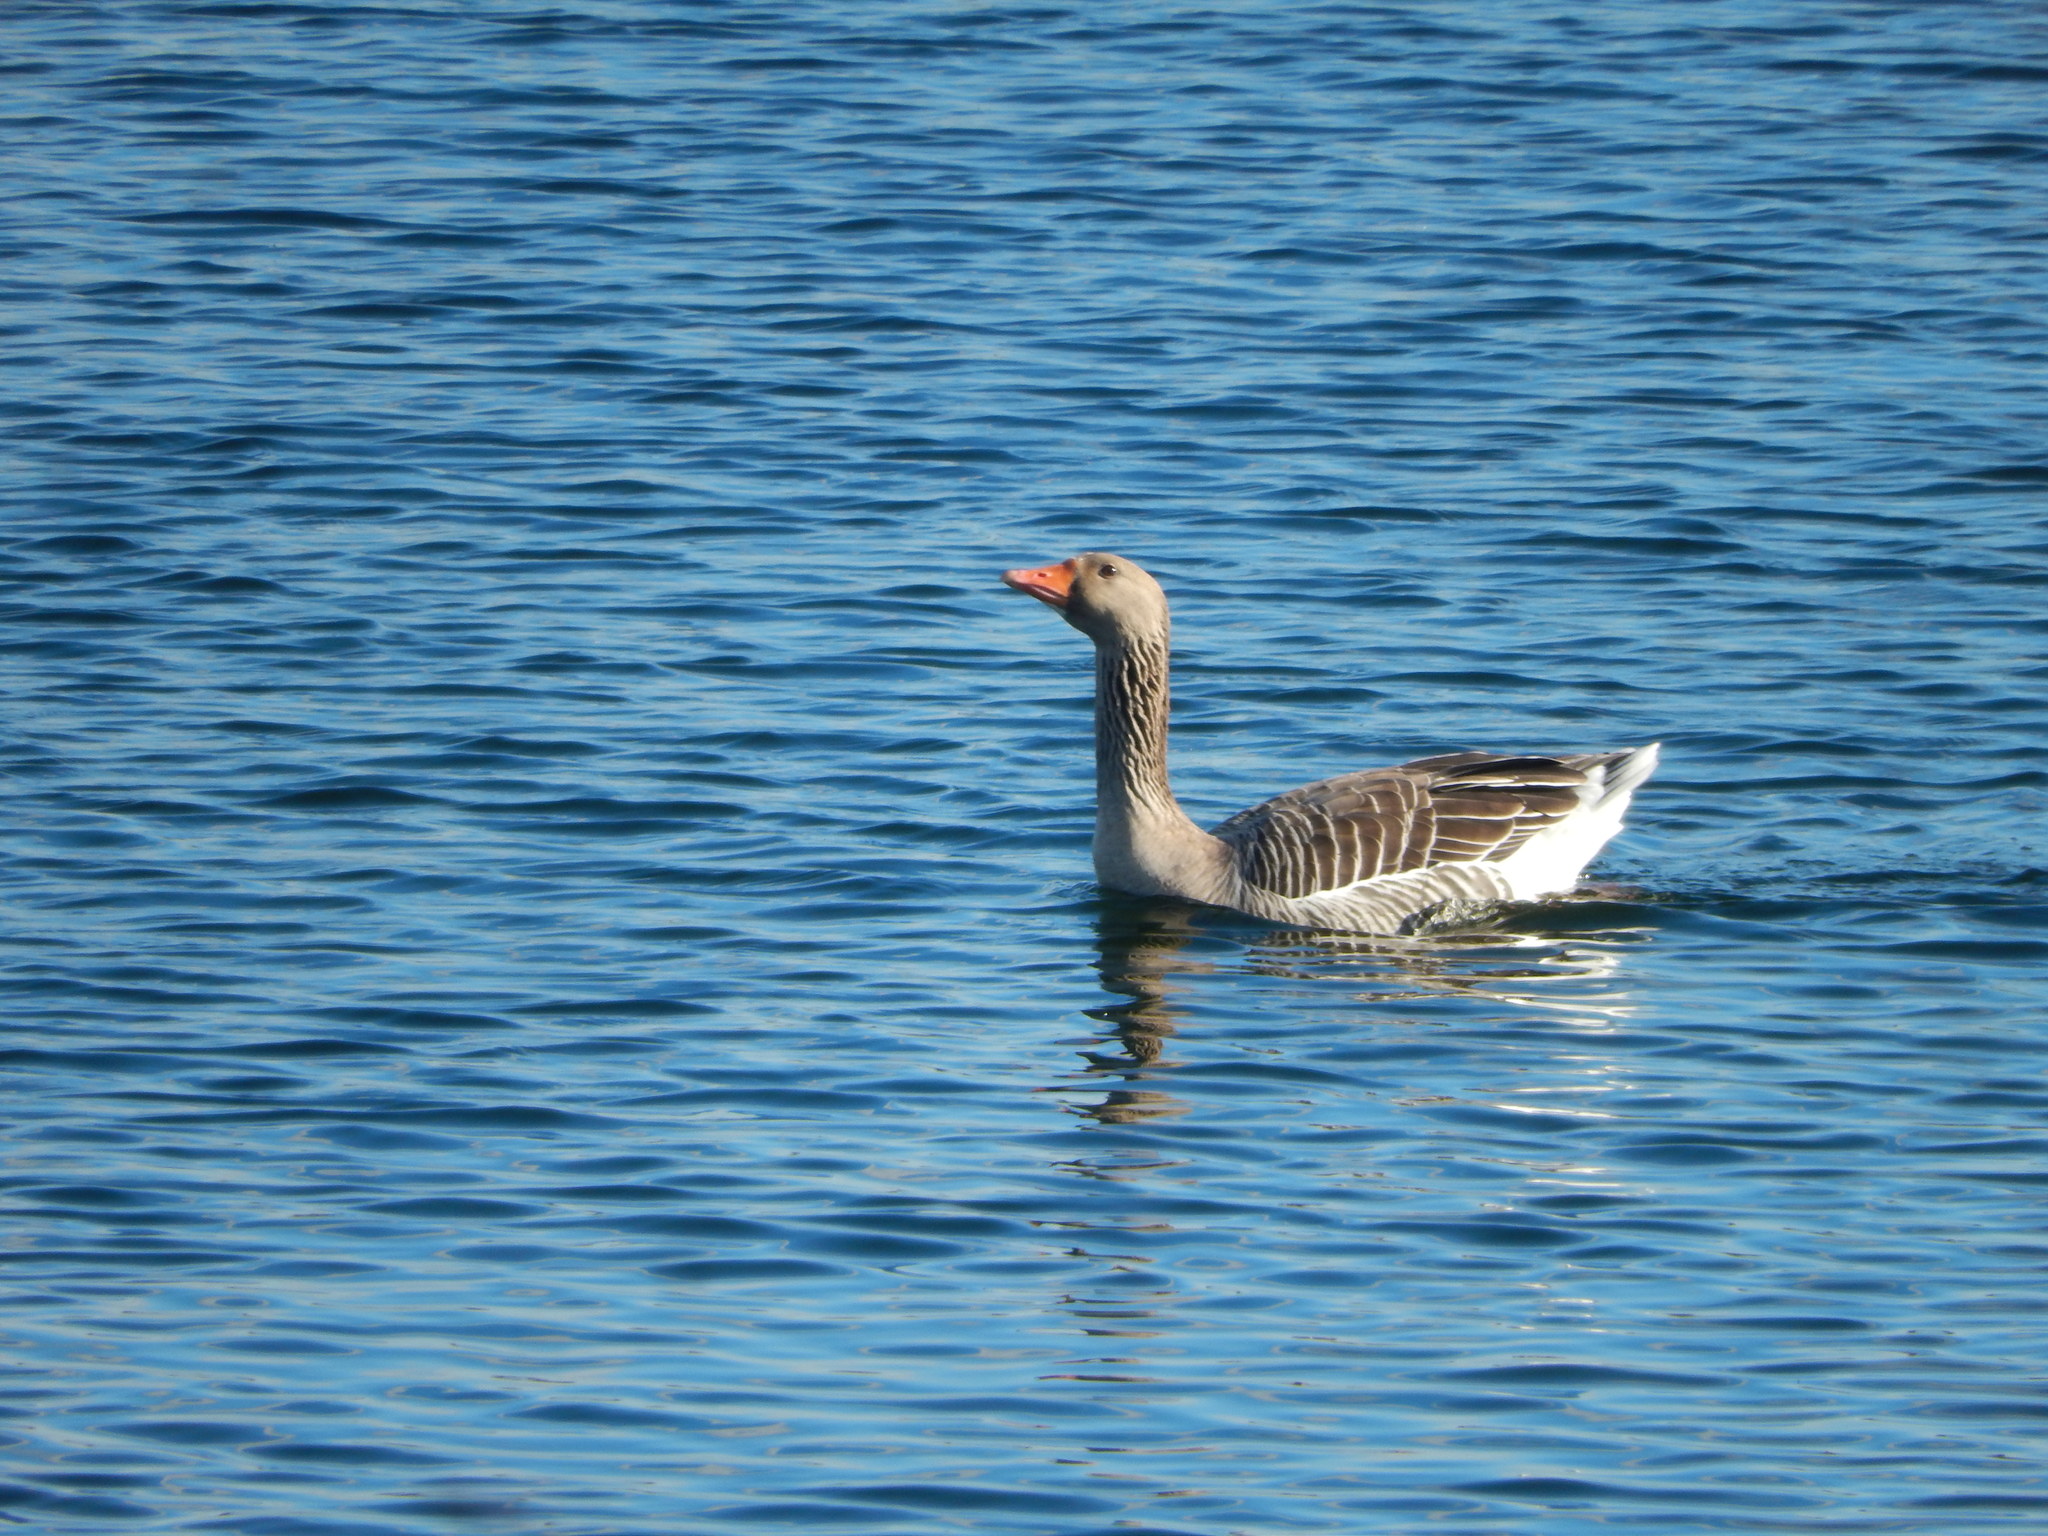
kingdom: Animalia
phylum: Chordata
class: Aves
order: Anseriformes
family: Anatidae
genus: Anser
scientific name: Anser anser
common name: Greylag goose
